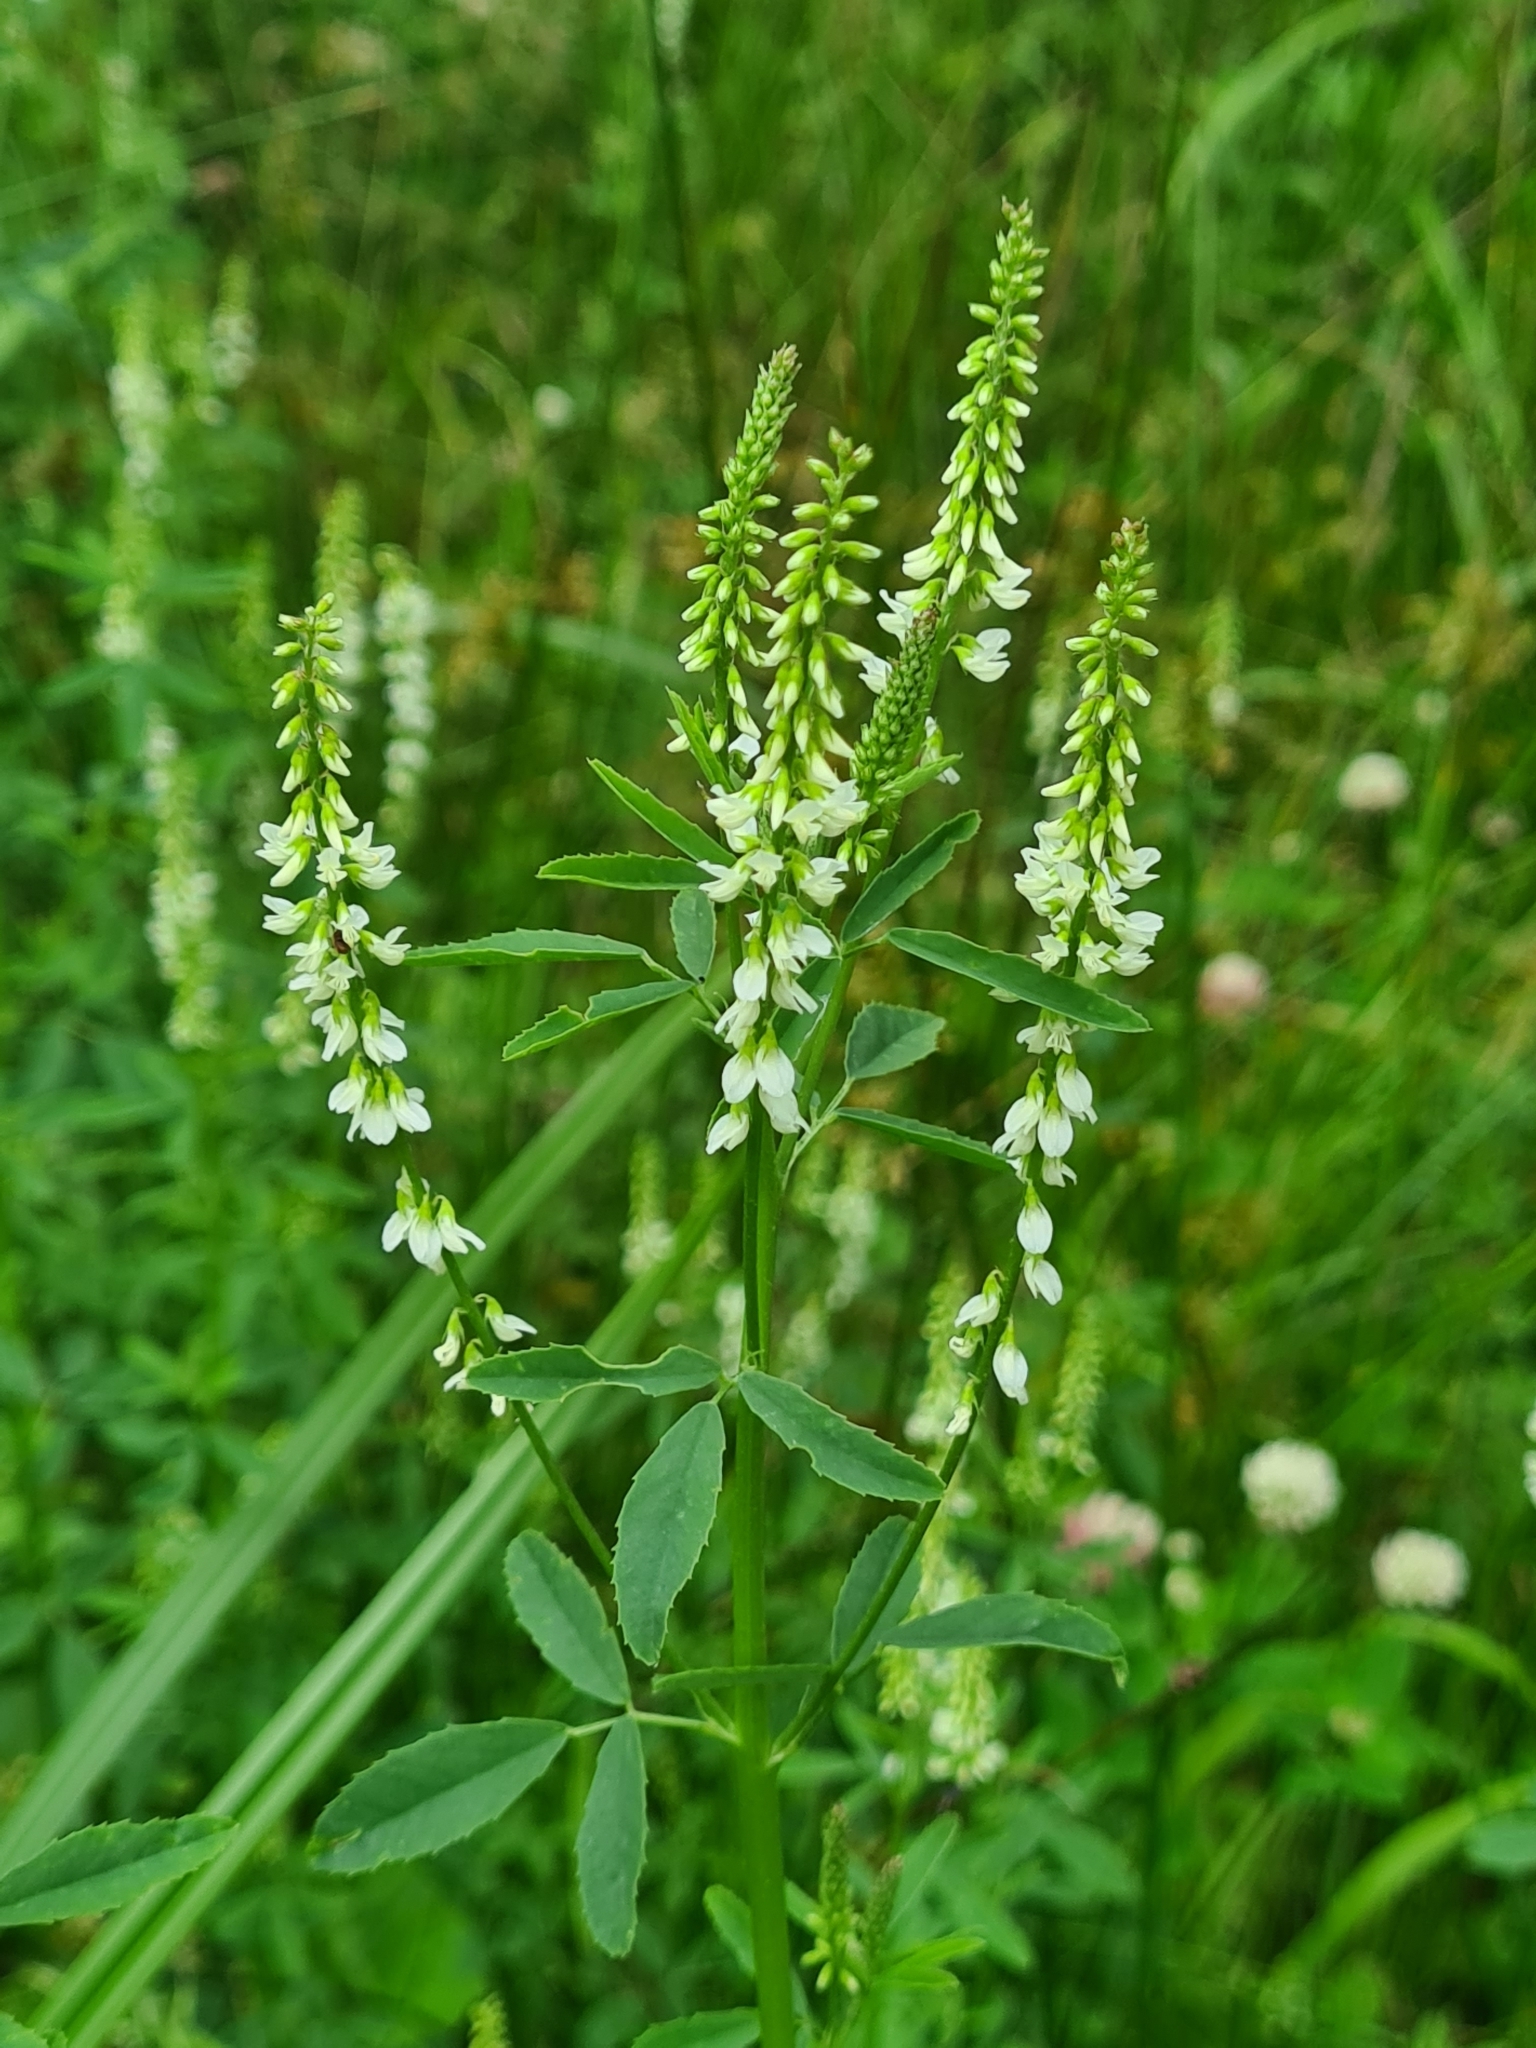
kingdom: Plantae
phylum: Tracheophyta
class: Magnoliopsida
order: Fabales
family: Fabaceae
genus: Melilotus
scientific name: Melilotus albus
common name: White melilot
